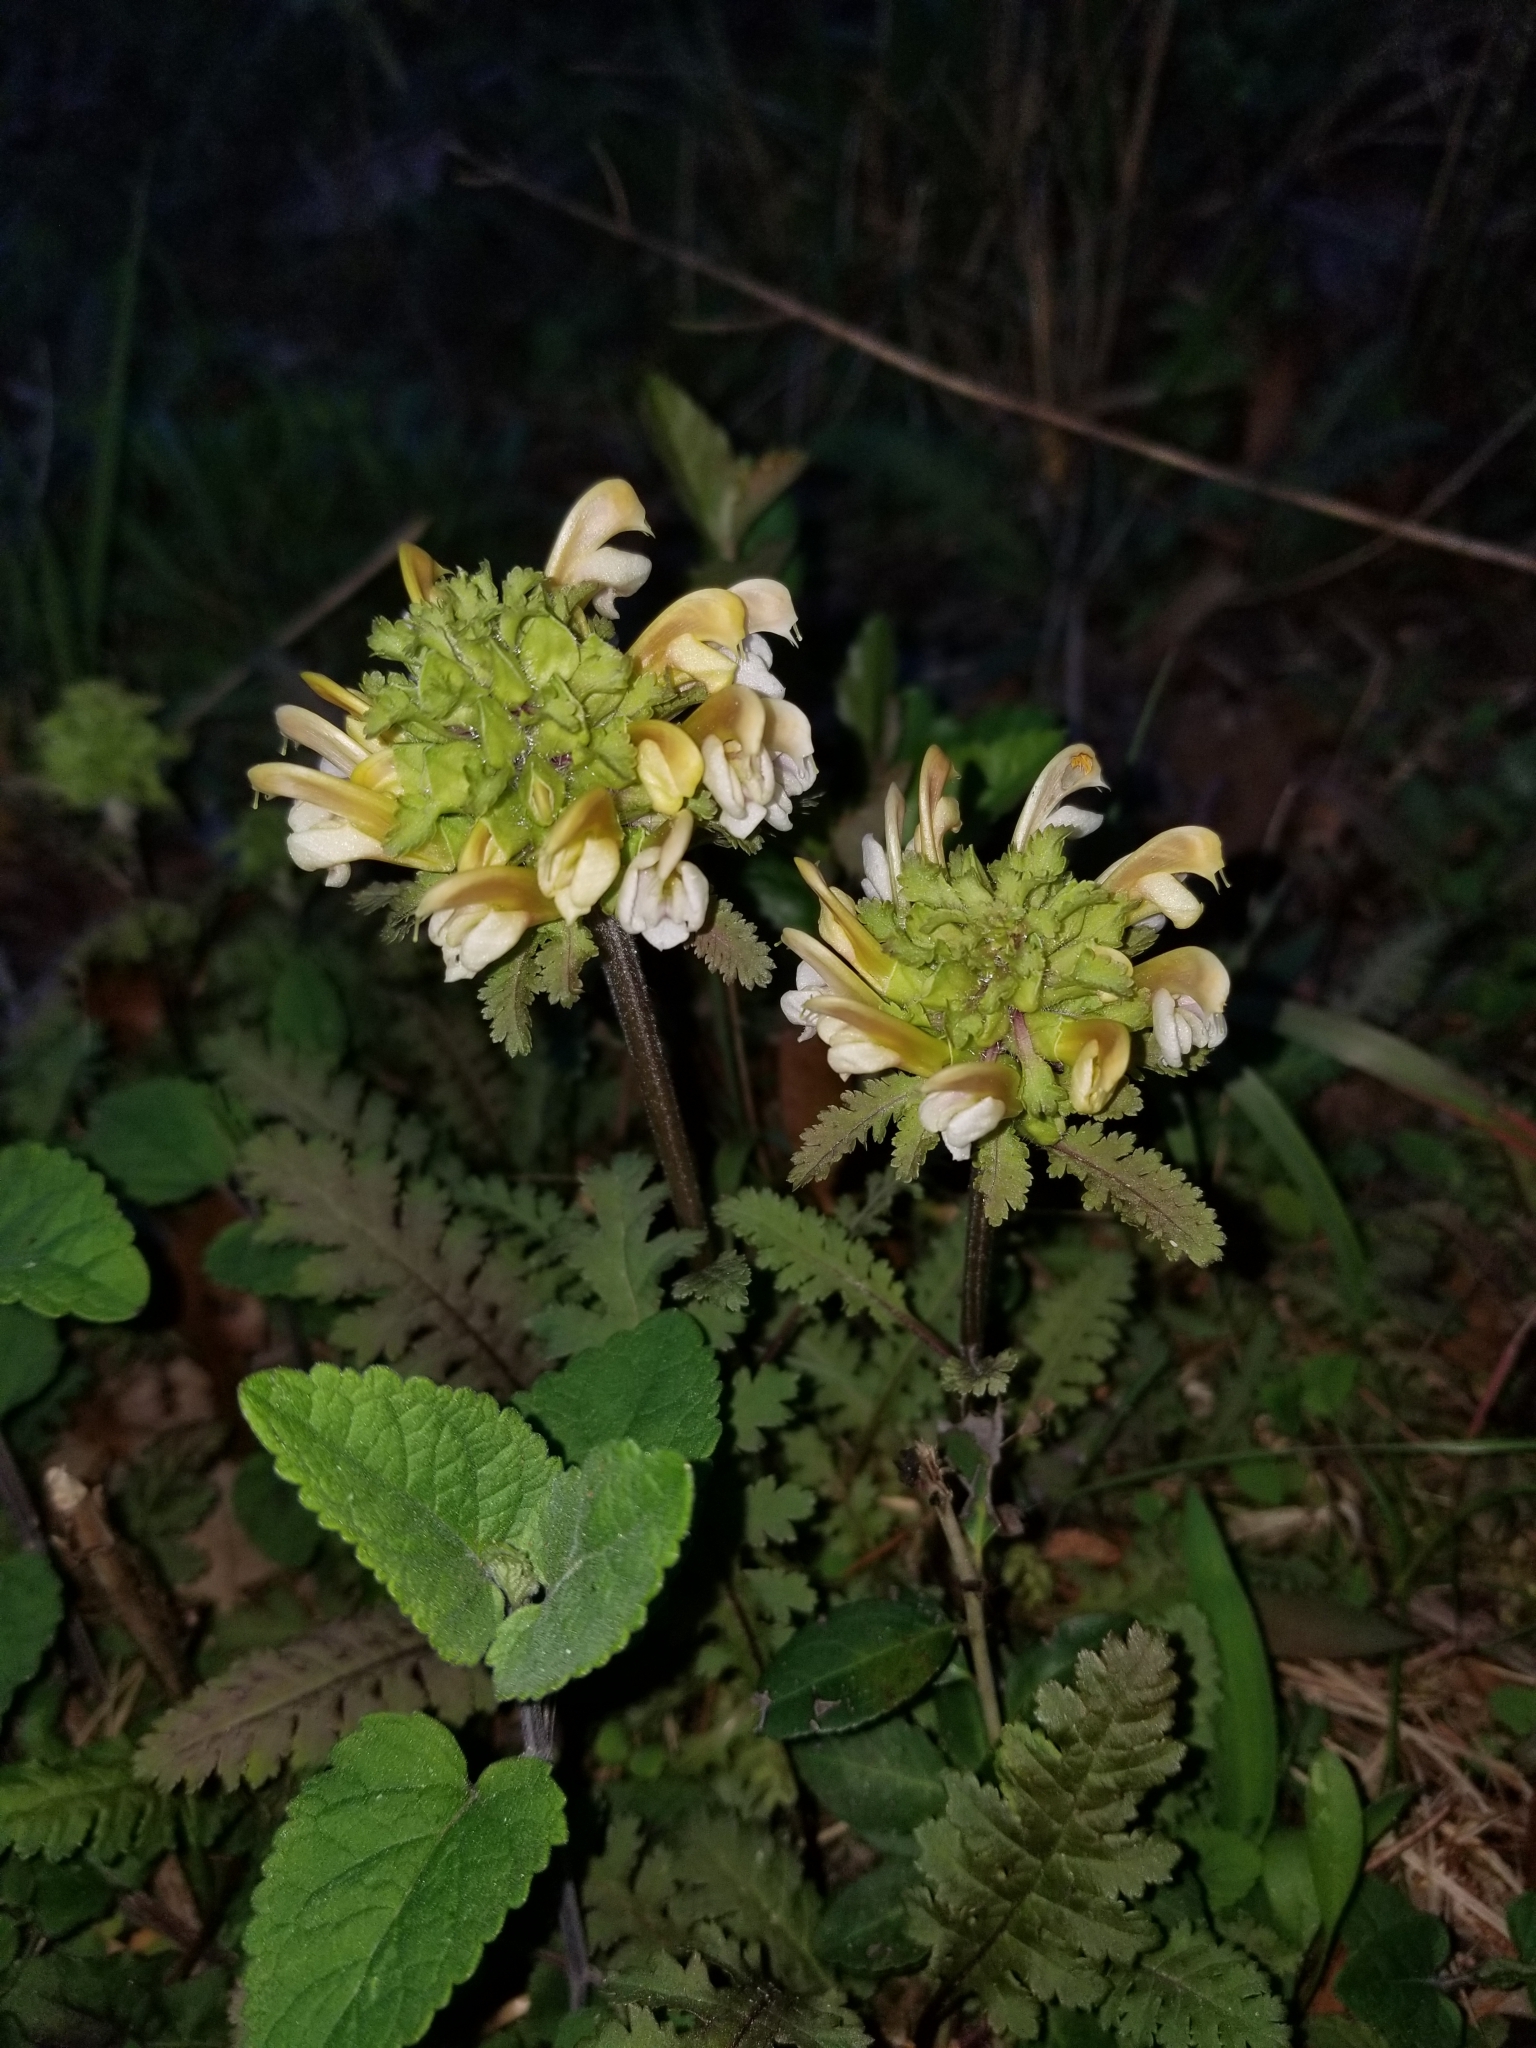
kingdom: Plantae
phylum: Tracheophyta
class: Magnoliopsida
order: Lamiales
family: Orobanchaceae
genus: Pedicularis
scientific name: Pedicularis canadensis
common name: Early lousewort
